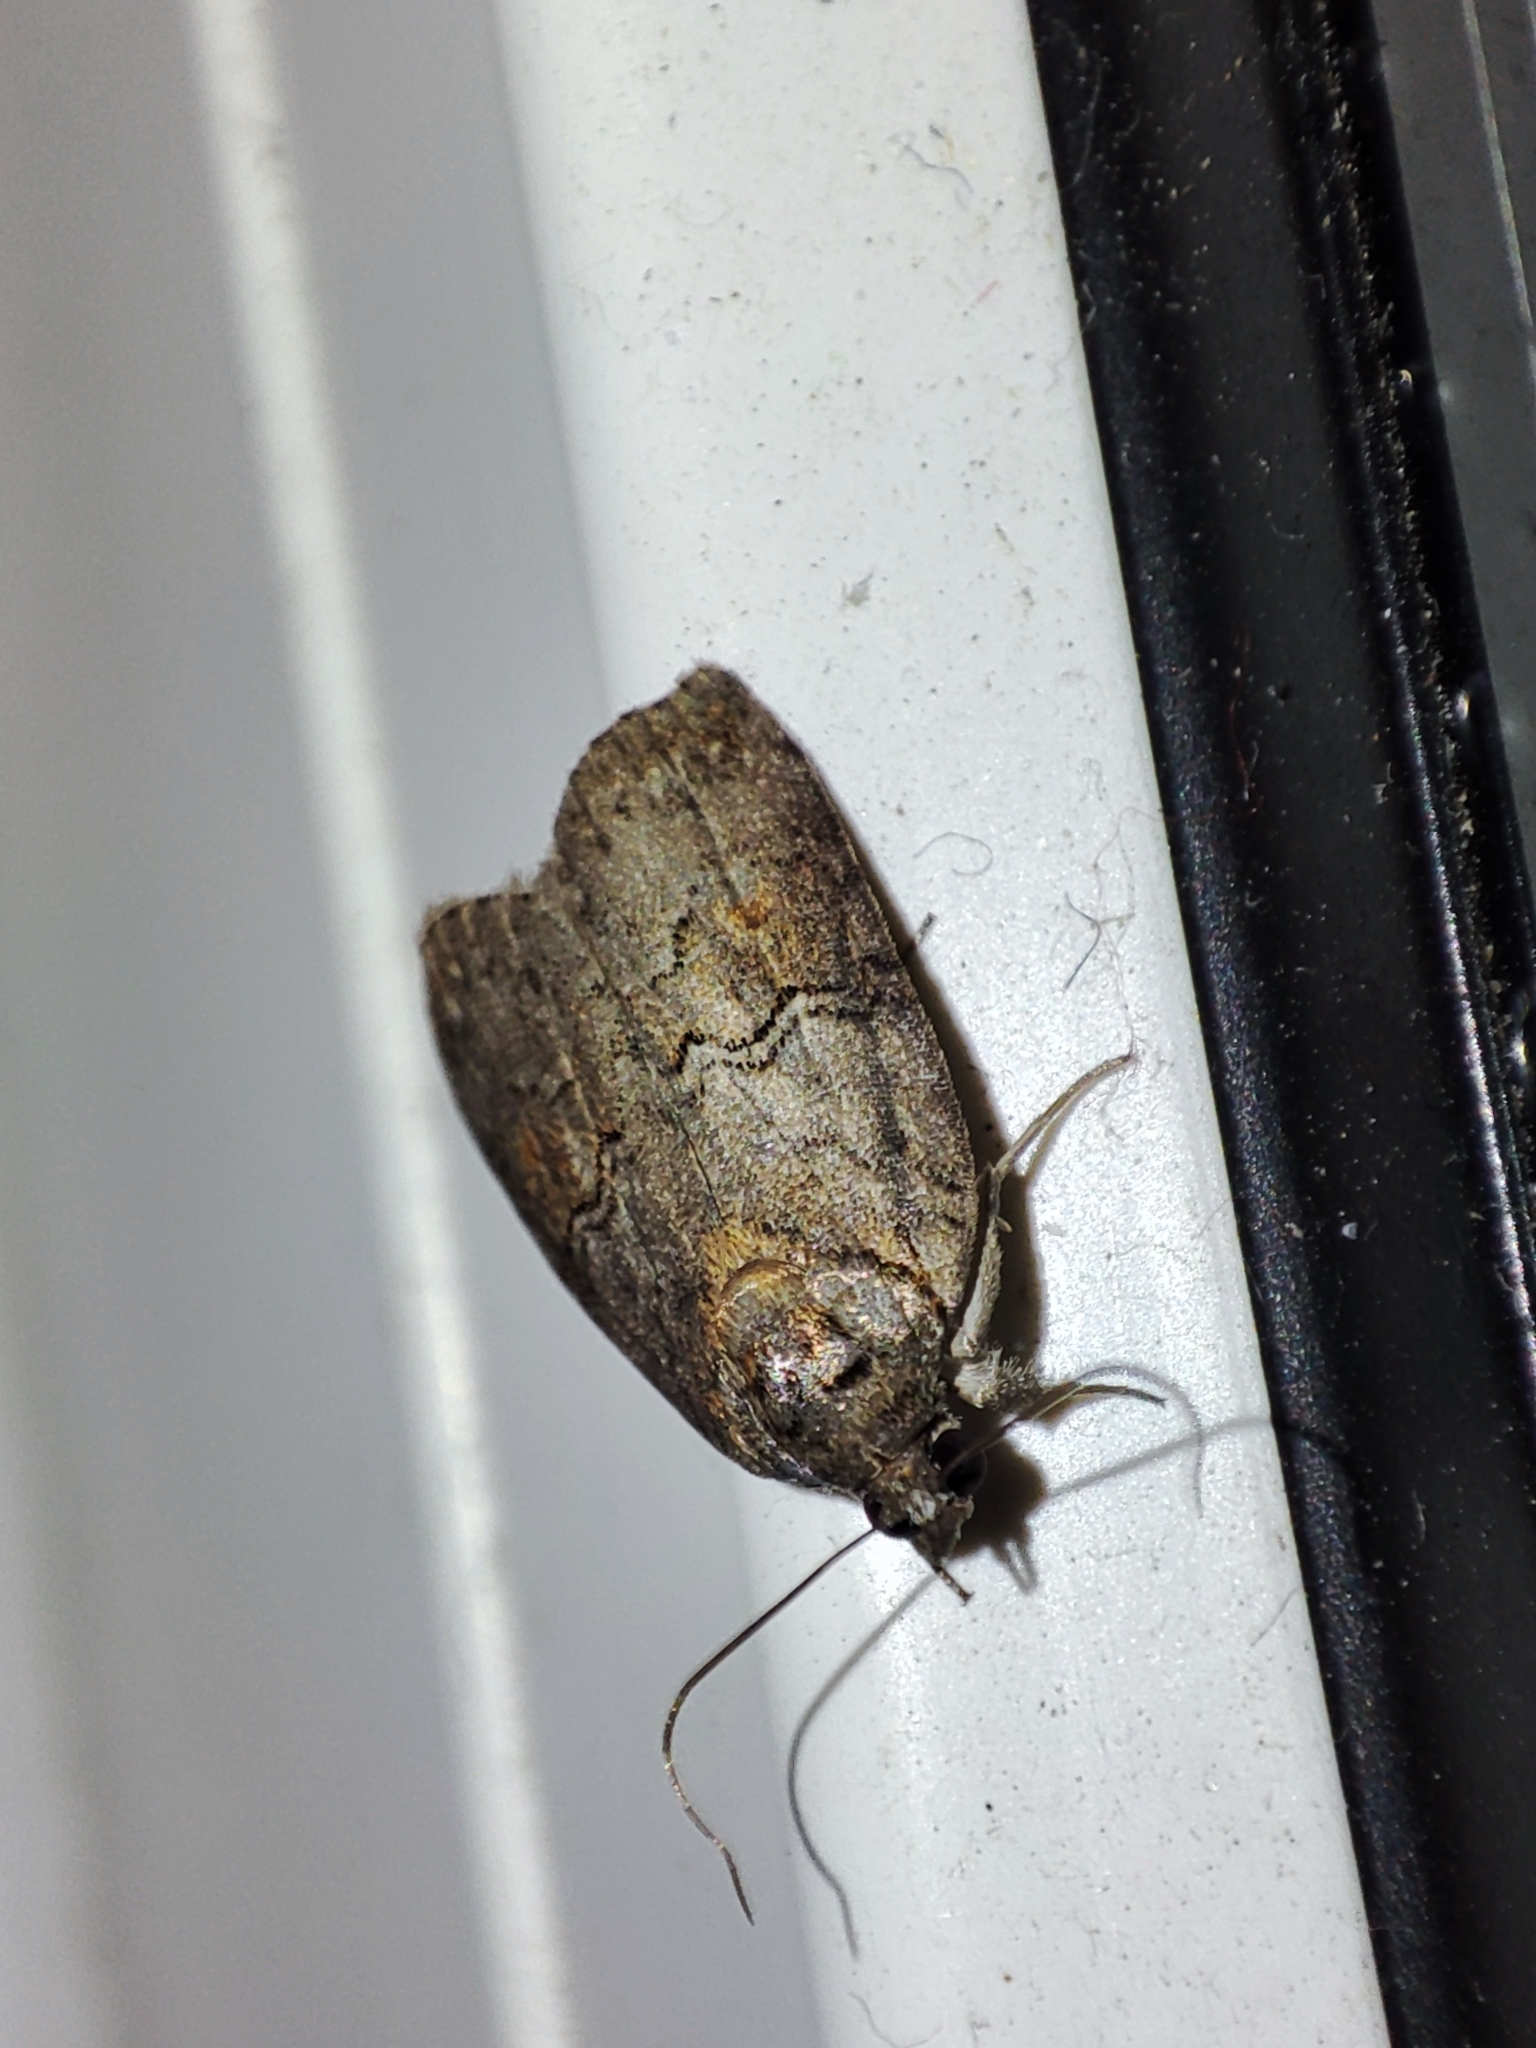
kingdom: Animalia
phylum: Arthropoda
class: Insecta
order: Lepidoptera
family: Nolidae
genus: Nycteola
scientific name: Nycteola asiatica
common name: Eastern nycteoline
